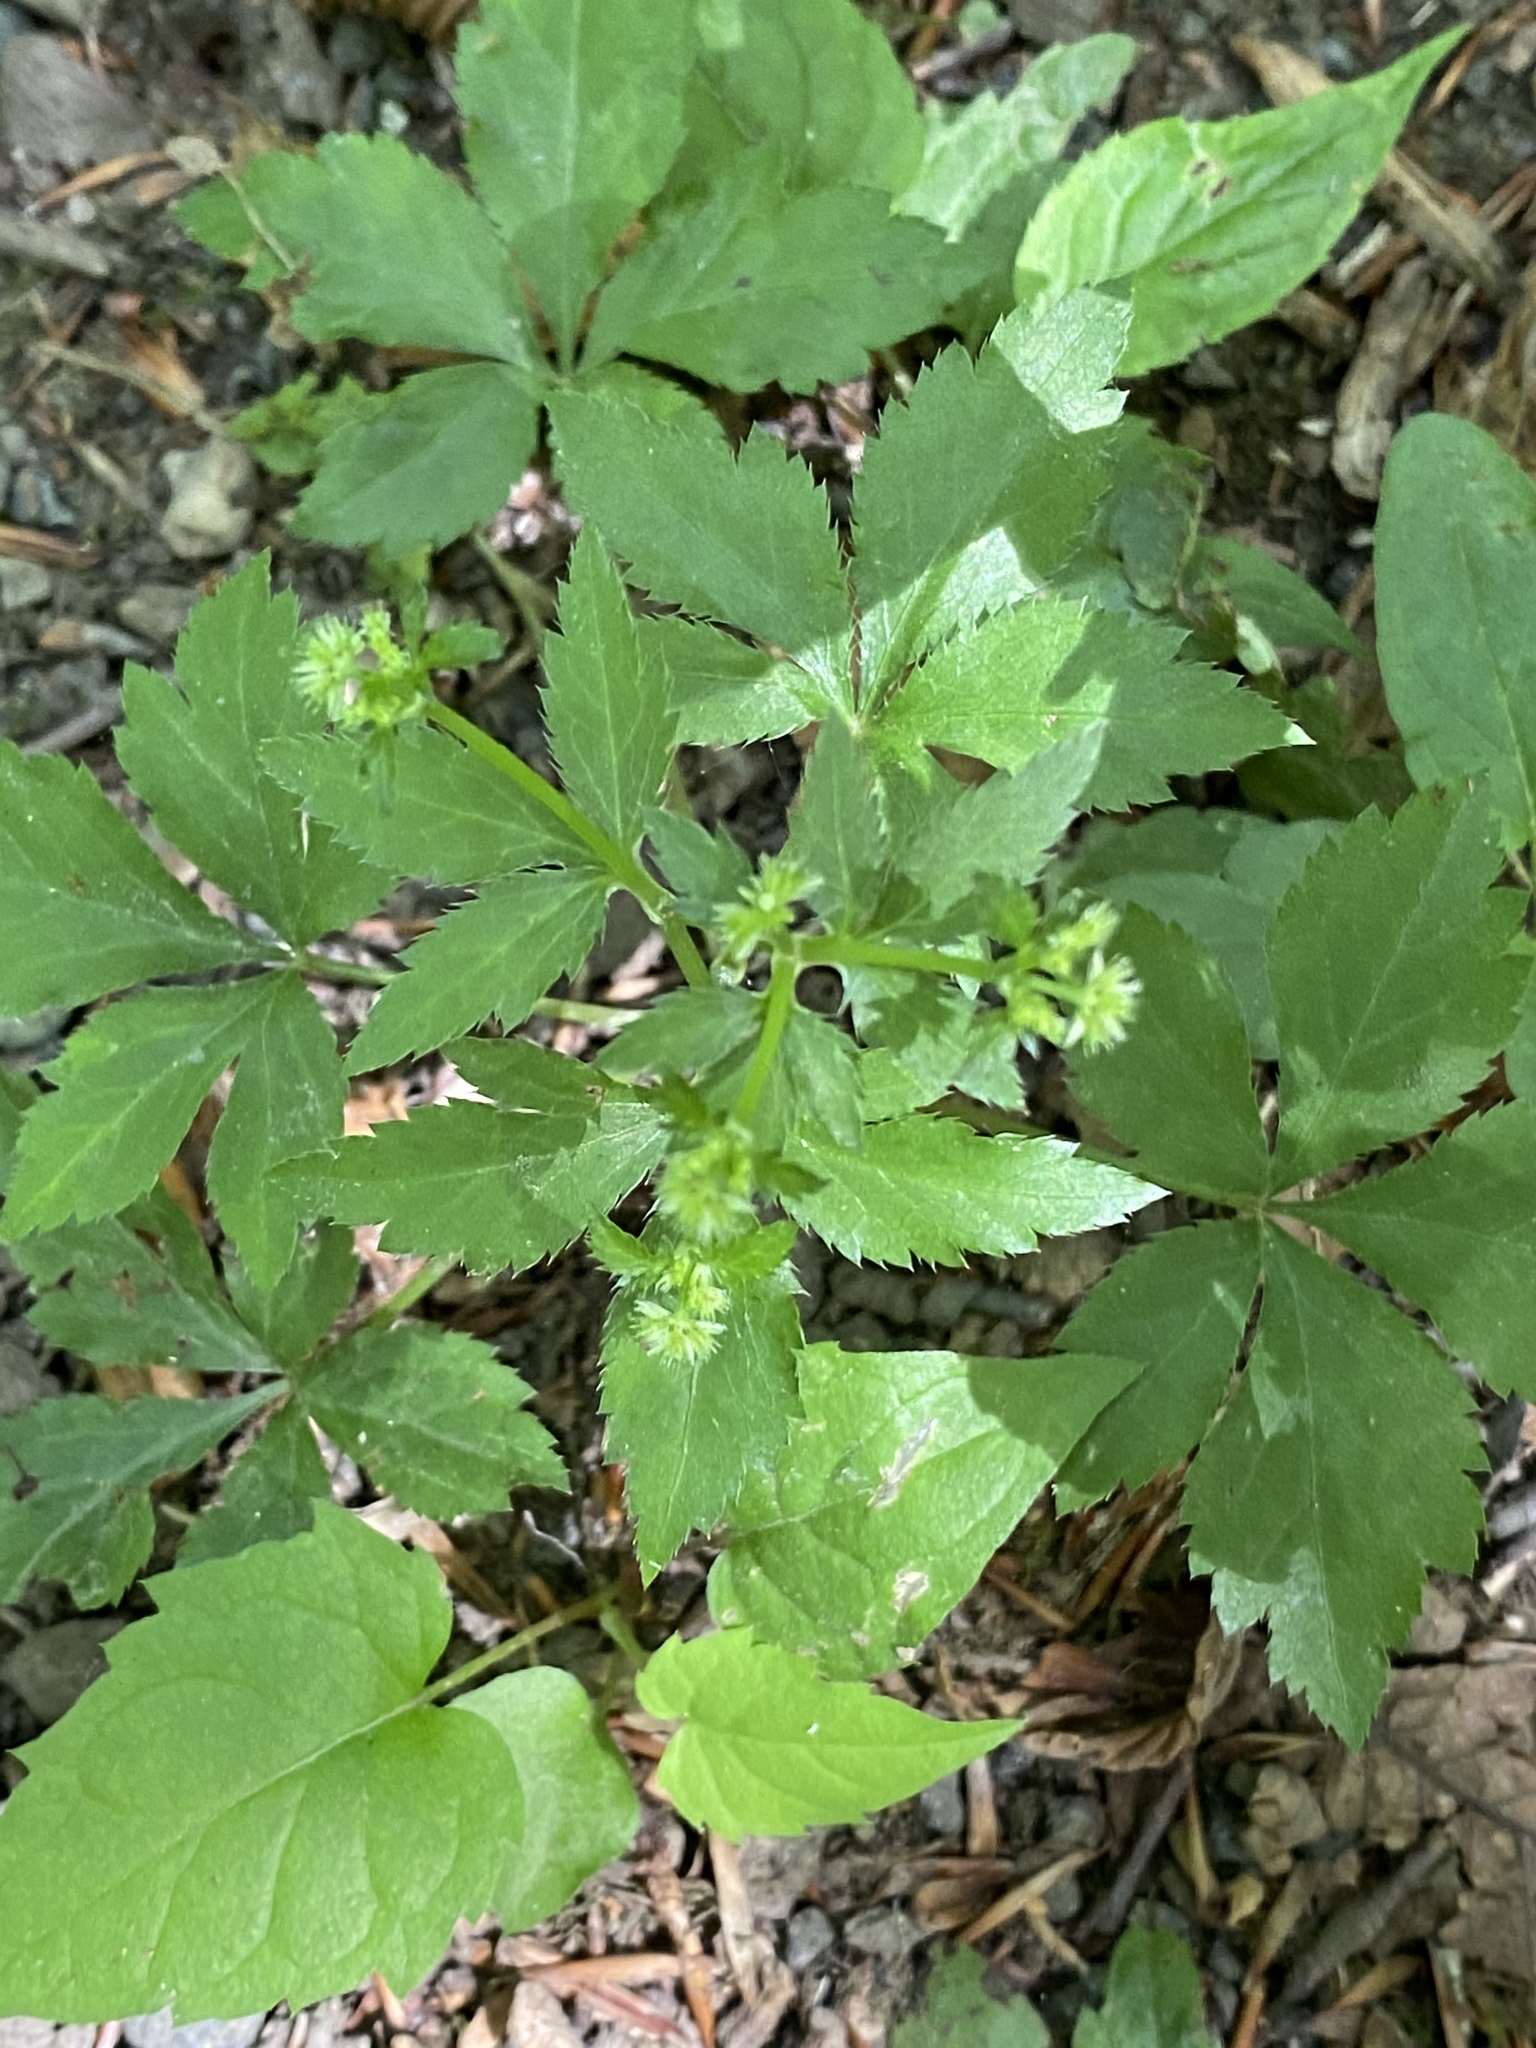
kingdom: Plantae
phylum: Tracheophyta
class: Magnoliopsida
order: Apiales
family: Apiaceae
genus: Sanicula
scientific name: Sanicula canadensis
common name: Canada sanicle
